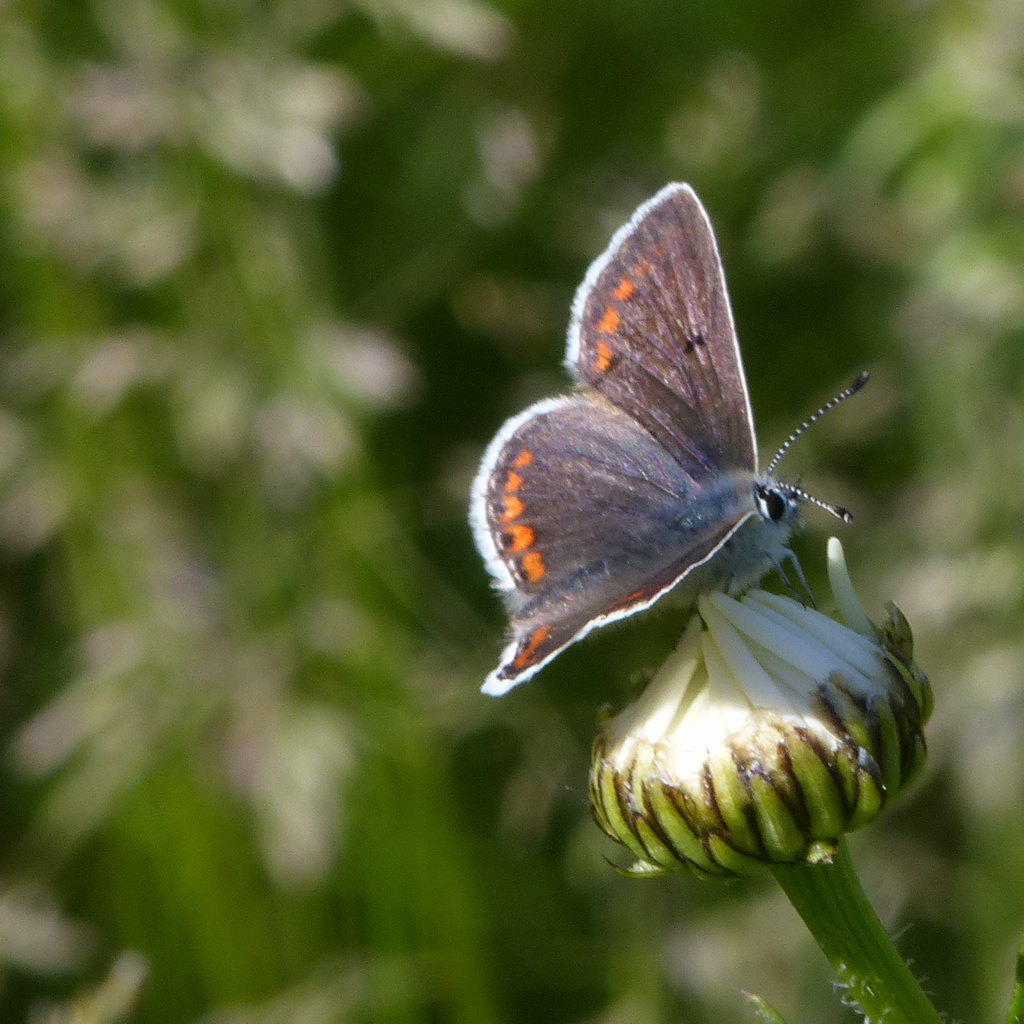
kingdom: Animalia
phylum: Arthropoda
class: Insecta
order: Lepidoptera
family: Lycaenidae
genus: Aricia
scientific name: Aricia agestis
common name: Brown argus
